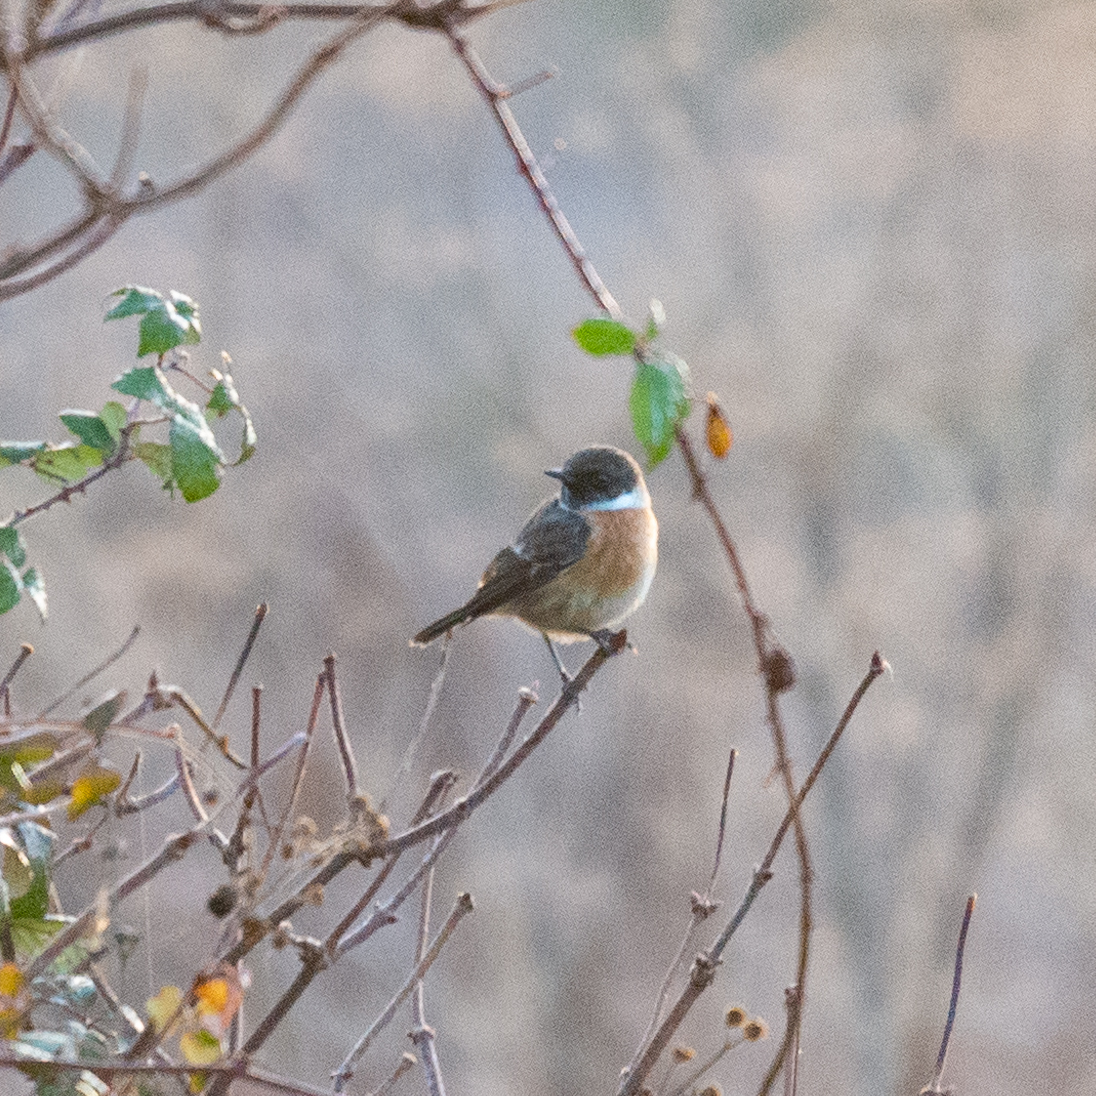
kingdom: Animalia
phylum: Chordata
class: Aves
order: Passeriformes
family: Muscicapidae
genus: Saxicola
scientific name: Saxicola rubicola
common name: European stonechat
